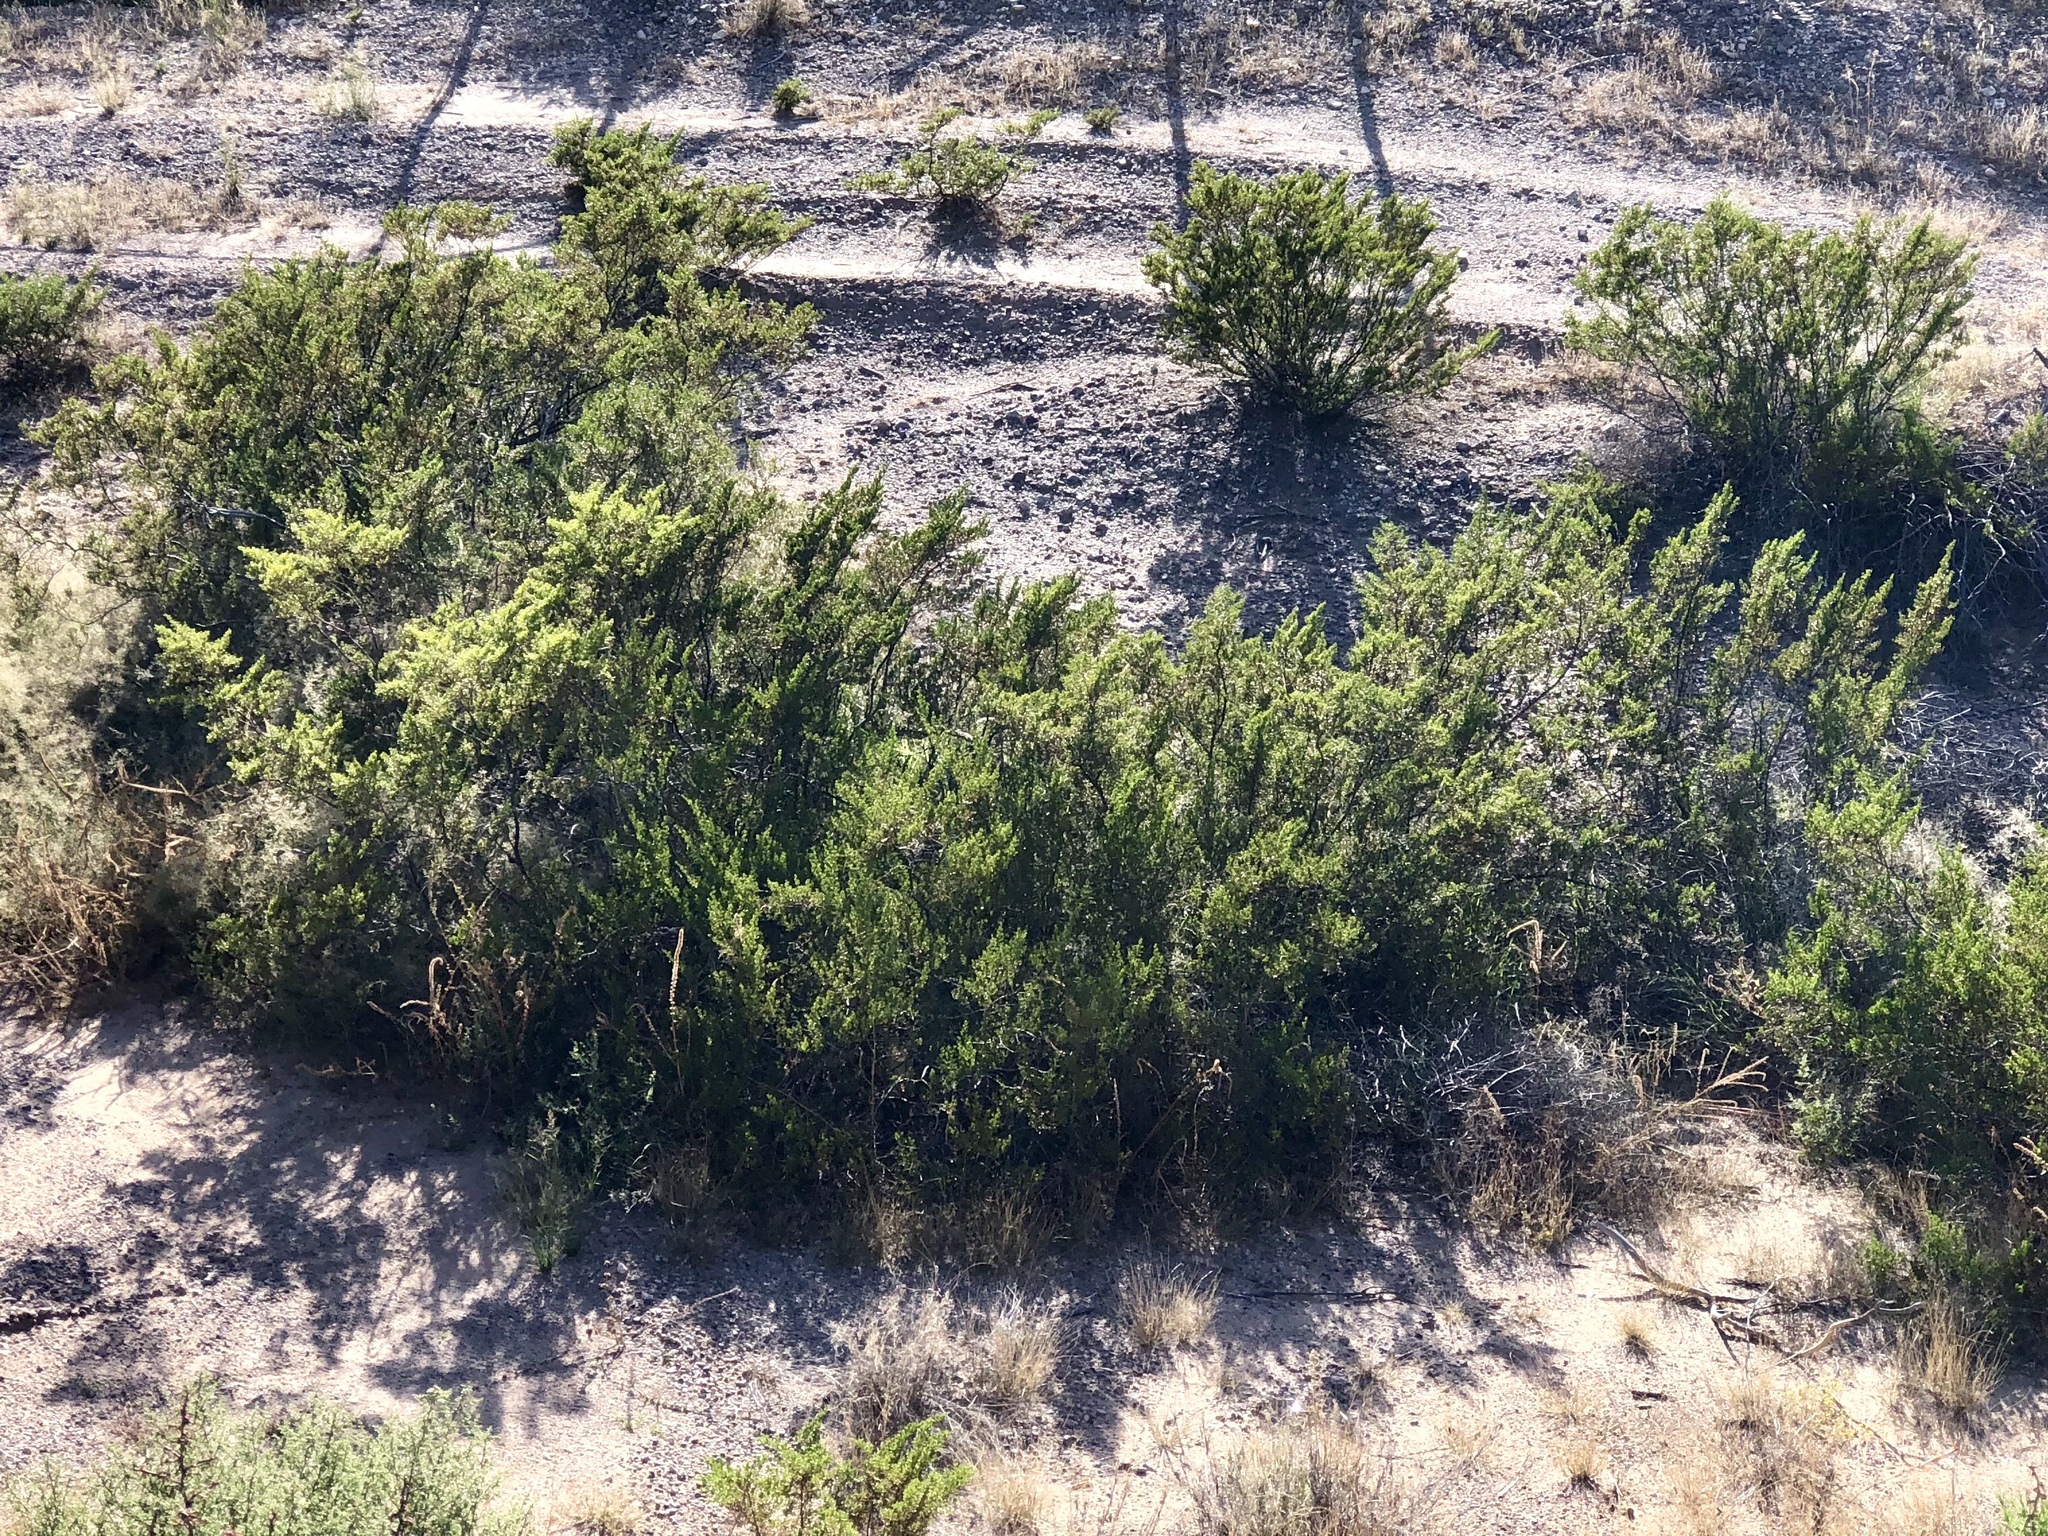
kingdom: Plantae
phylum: Tracheophyta
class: Magnoliopsida
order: Zygophyllales
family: Zygophyllaceae
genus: Larrea
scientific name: Larrea tridentata
